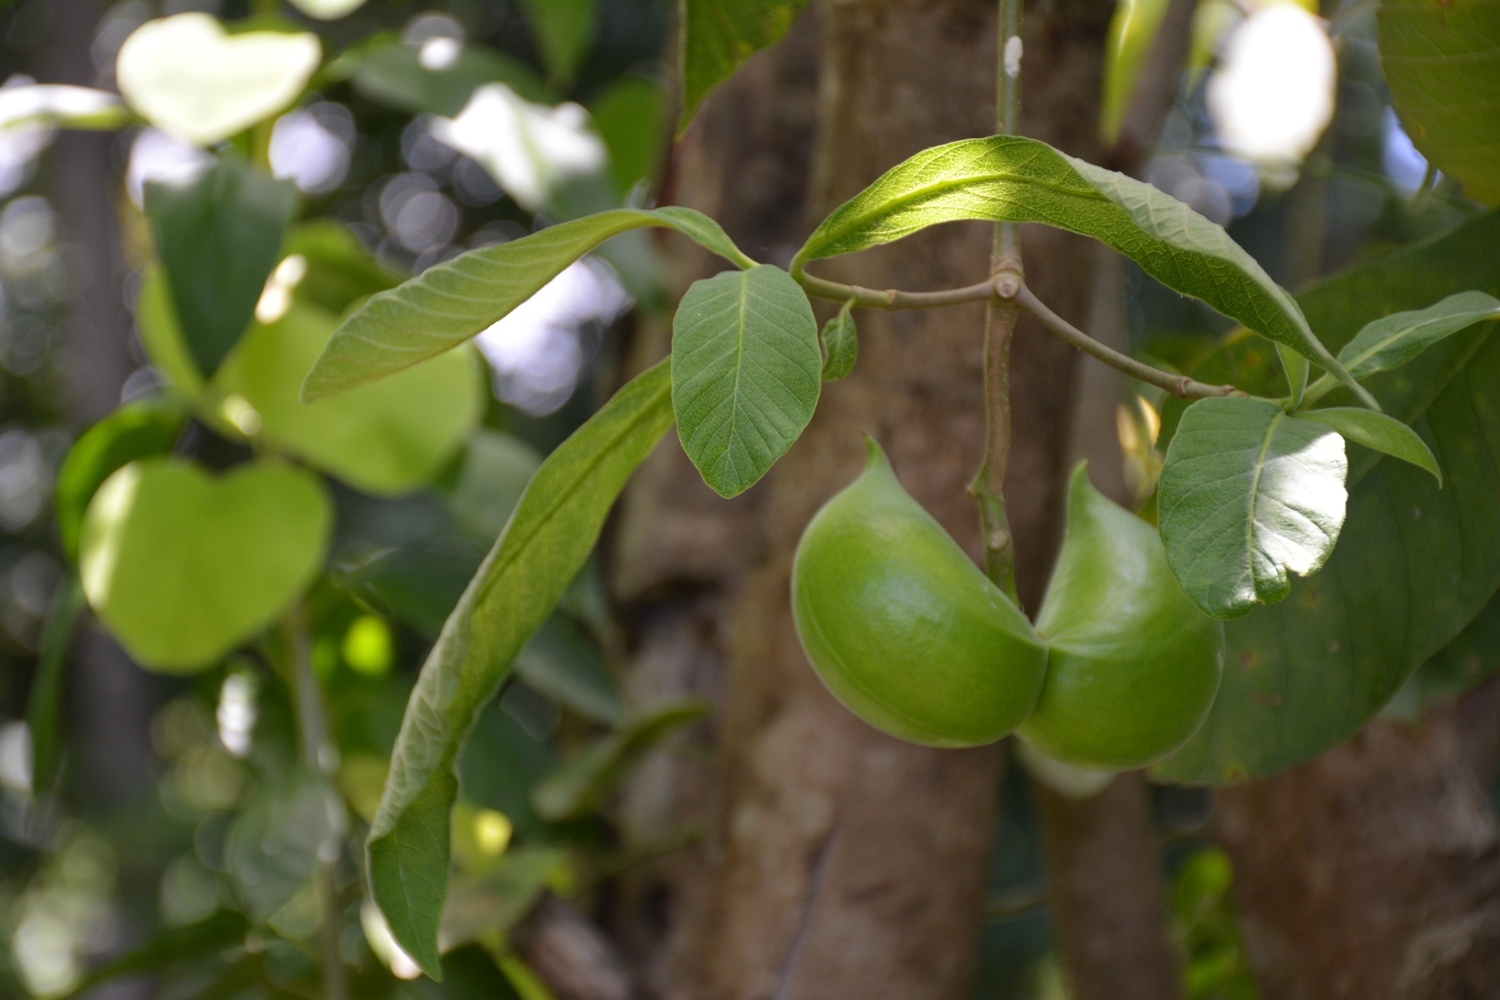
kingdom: Plantae
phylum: Tracheophyta
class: Magnoliopsida
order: Gentianales
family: Apocynaceae
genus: Tabernaemontana
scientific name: Tabernaemontana glabra
